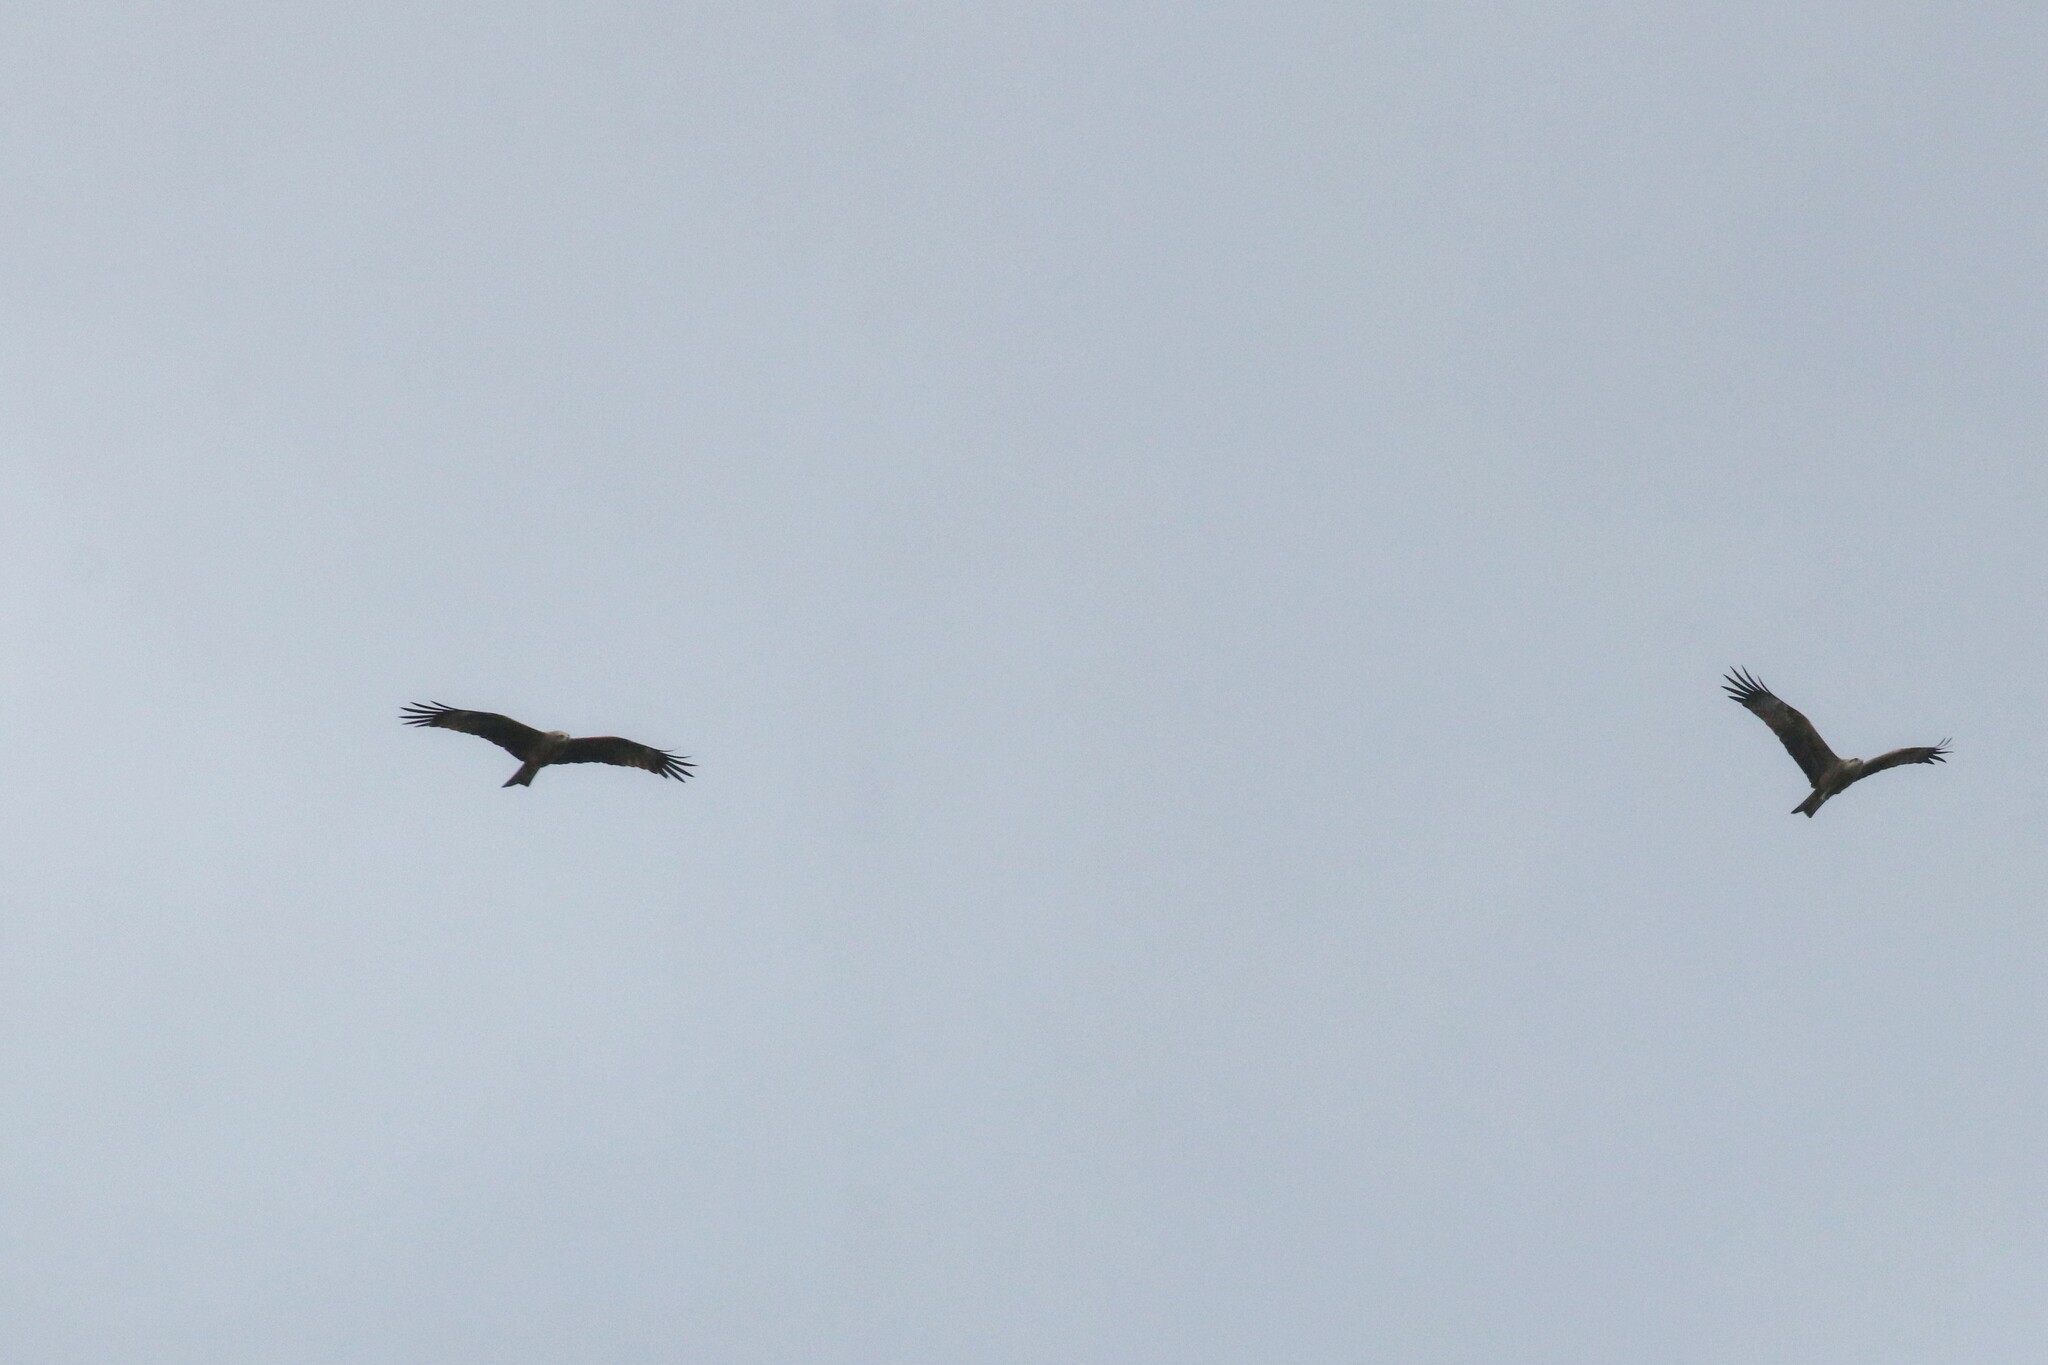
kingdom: Animalia
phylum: Chordata
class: Aves
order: Accipitriformes
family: Accipitridae
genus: Milvus
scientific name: Milvus migrans
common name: Black kite
